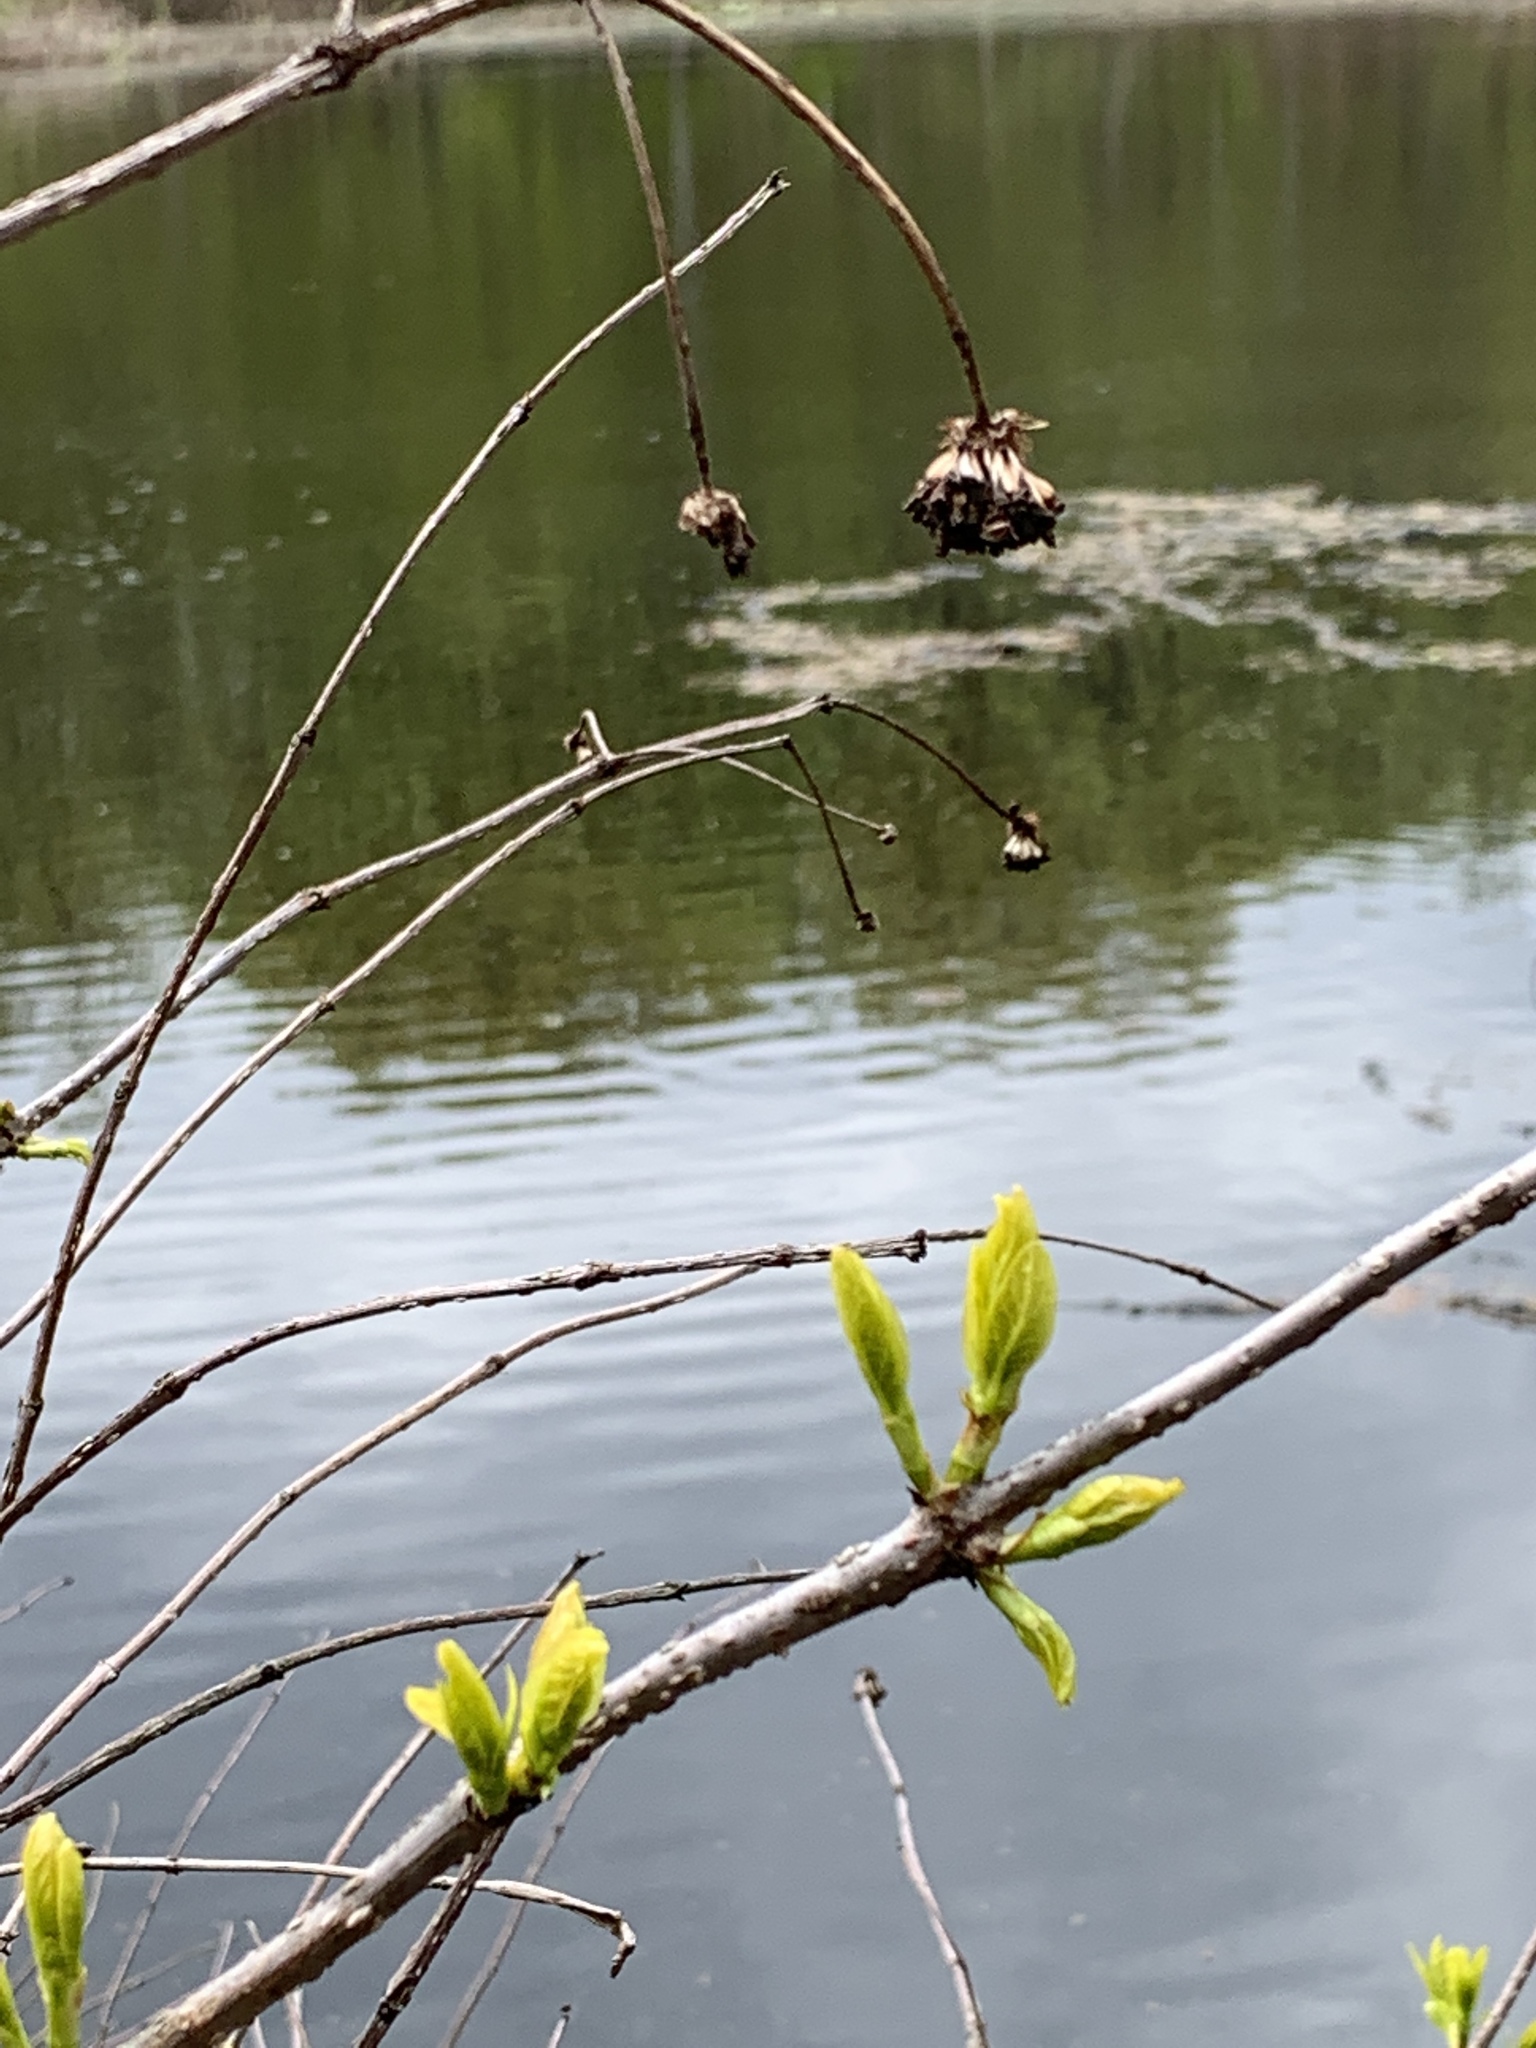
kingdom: Plantae
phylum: Tracheophyta
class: Magnoliopsida
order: Gentianales
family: Rubiaceae
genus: Cephalanthus
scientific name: Cephalanthus occidentalis
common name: Button-willow
